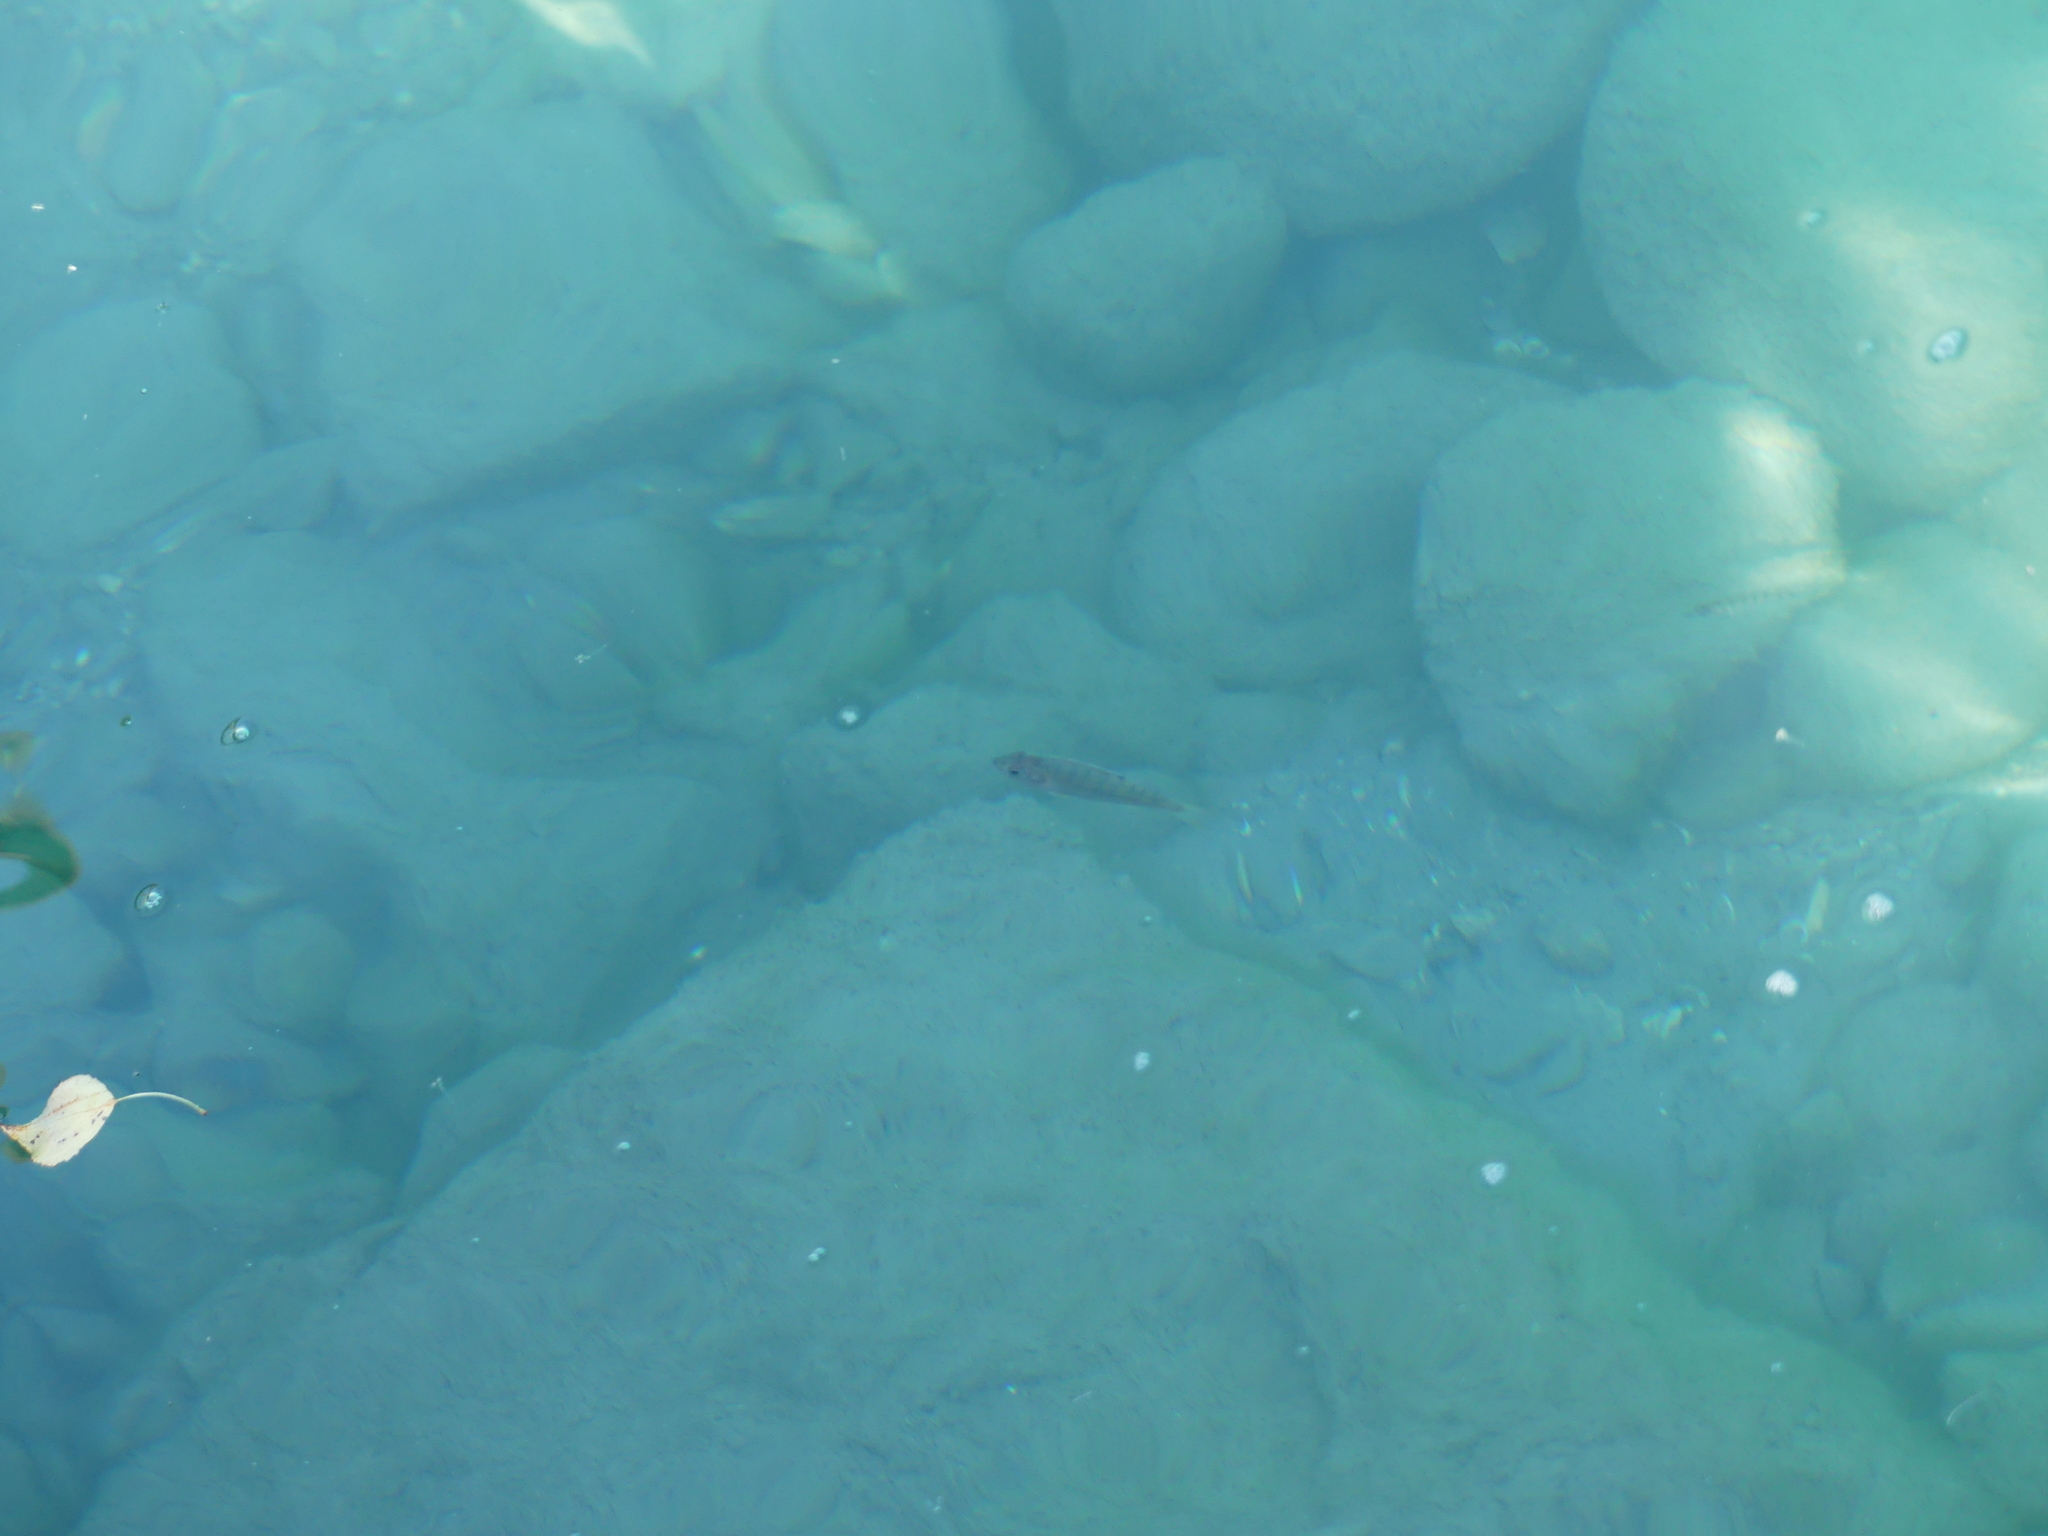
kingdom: Animalia
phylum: Chordata
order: Perciformes
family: Percidae
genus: Perca
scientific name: Perca fluviatilis
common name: Perch
